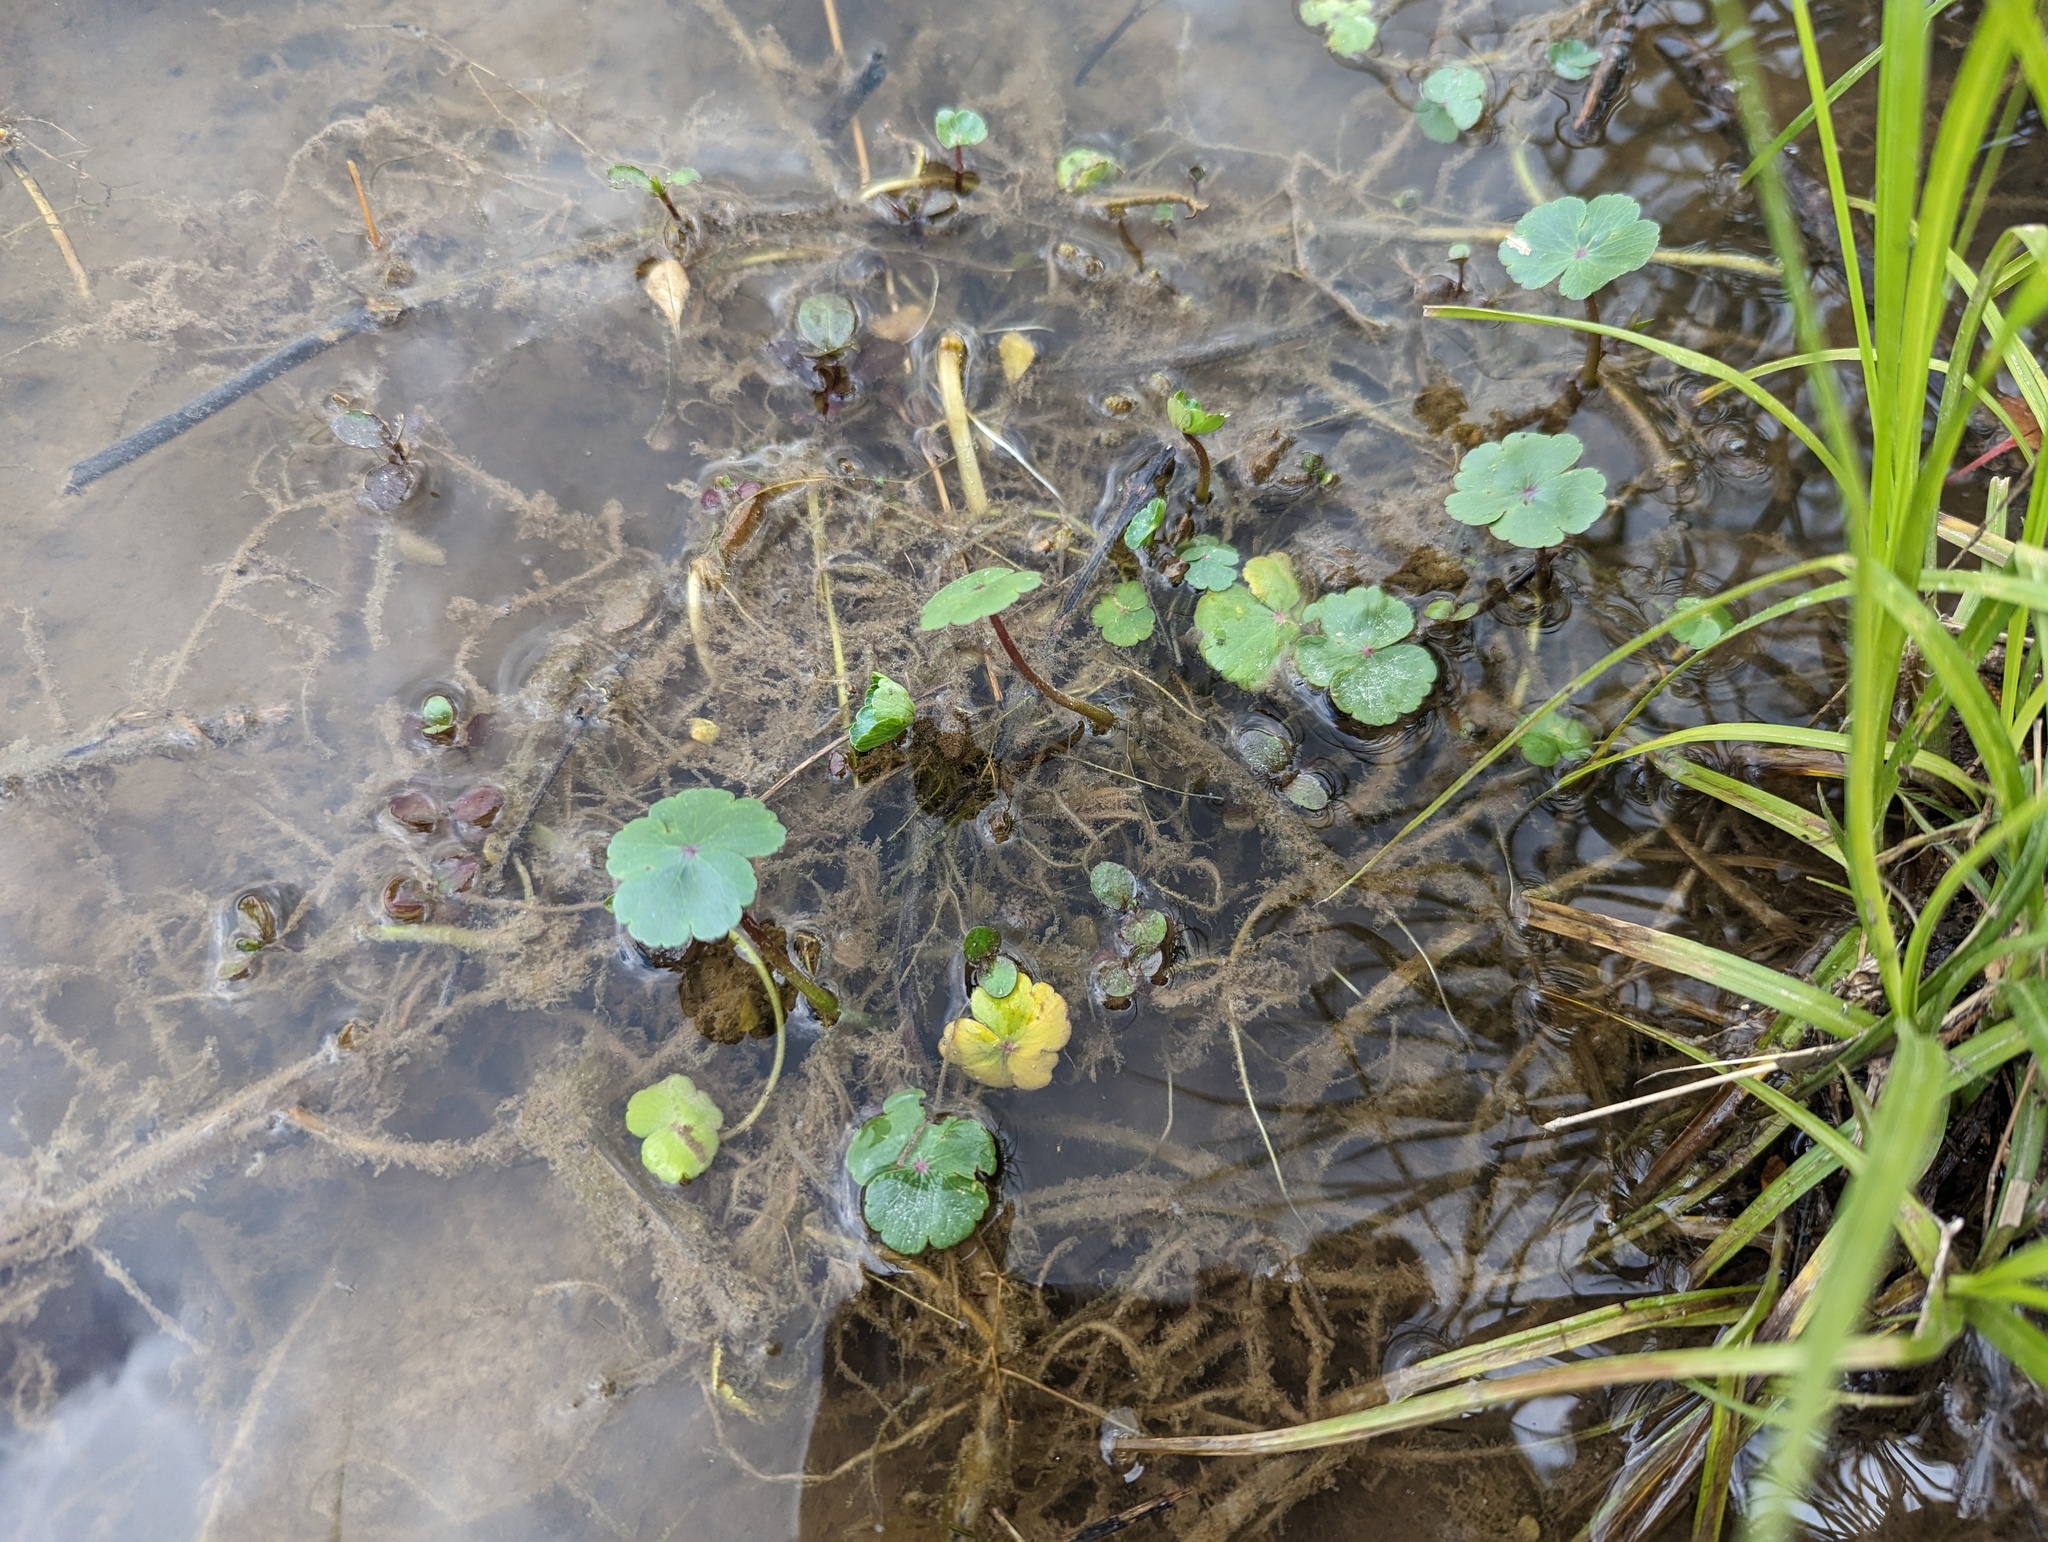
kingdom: Plantae
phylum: Tracheophyta
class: Magnoliopsida
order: Apiales
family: Araliaceae
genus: Hydrocotyle
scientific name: Hydrocotyle ranunculoides
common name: Floating pennywort
